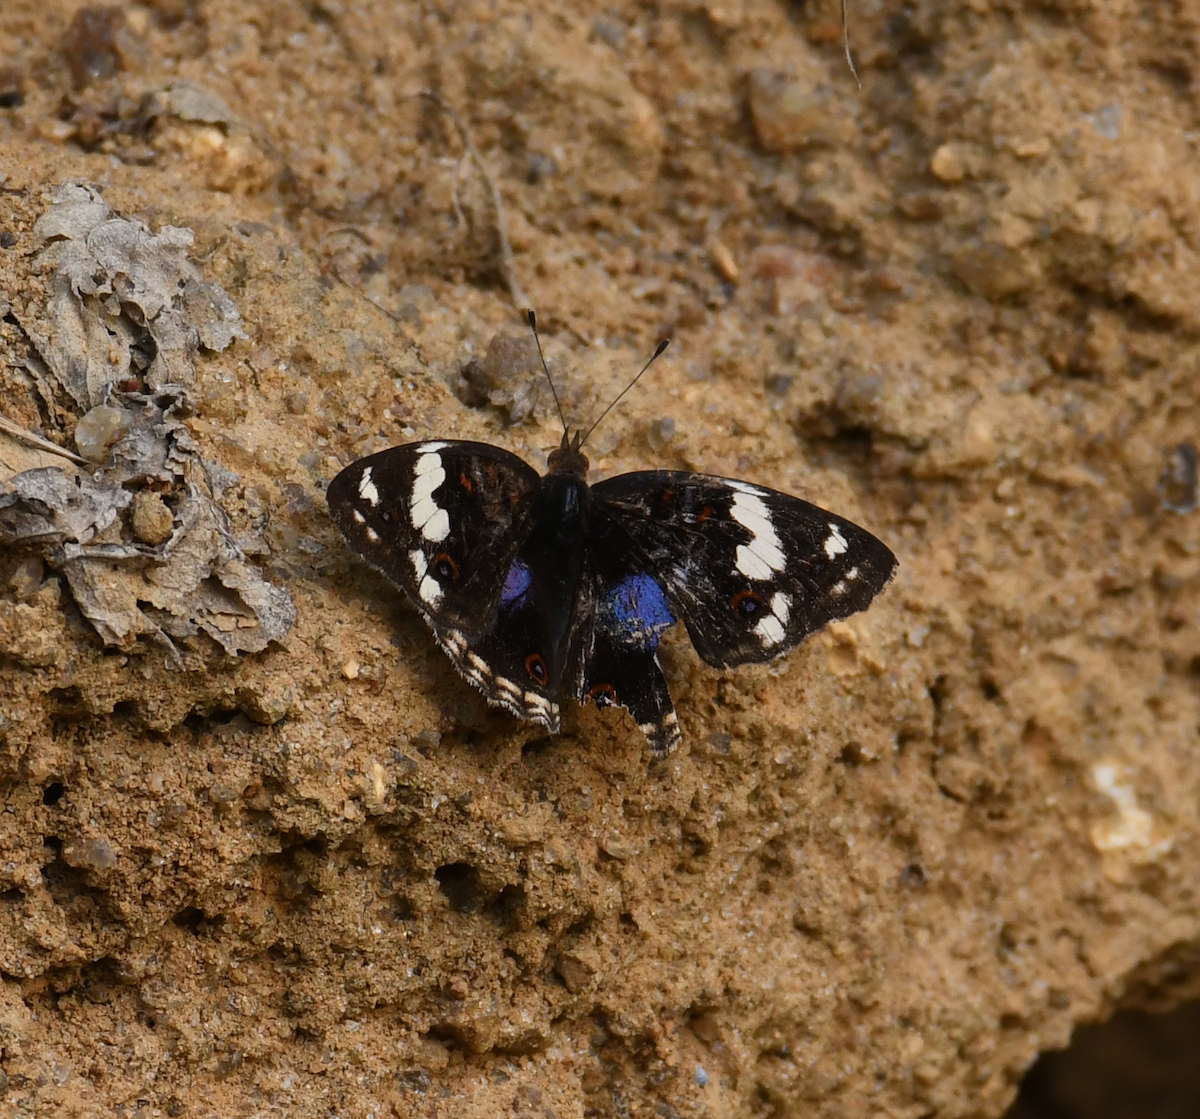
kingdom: Animalia
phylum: Arthropoda
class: Insecta
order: Lepidoptera
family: Nymphalidae
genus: Junonia
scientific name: Junonia oenone
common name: Dark blue pansy
